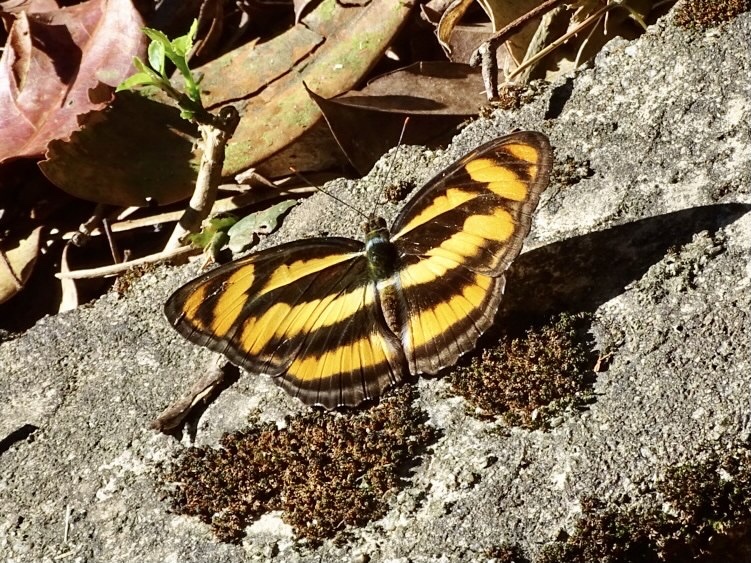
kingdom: Animalia
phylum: Arthropoda
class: Insecta
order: Lepidoptera
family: Nymphalidae
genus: Parathyma
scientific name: Parathyma nefte
